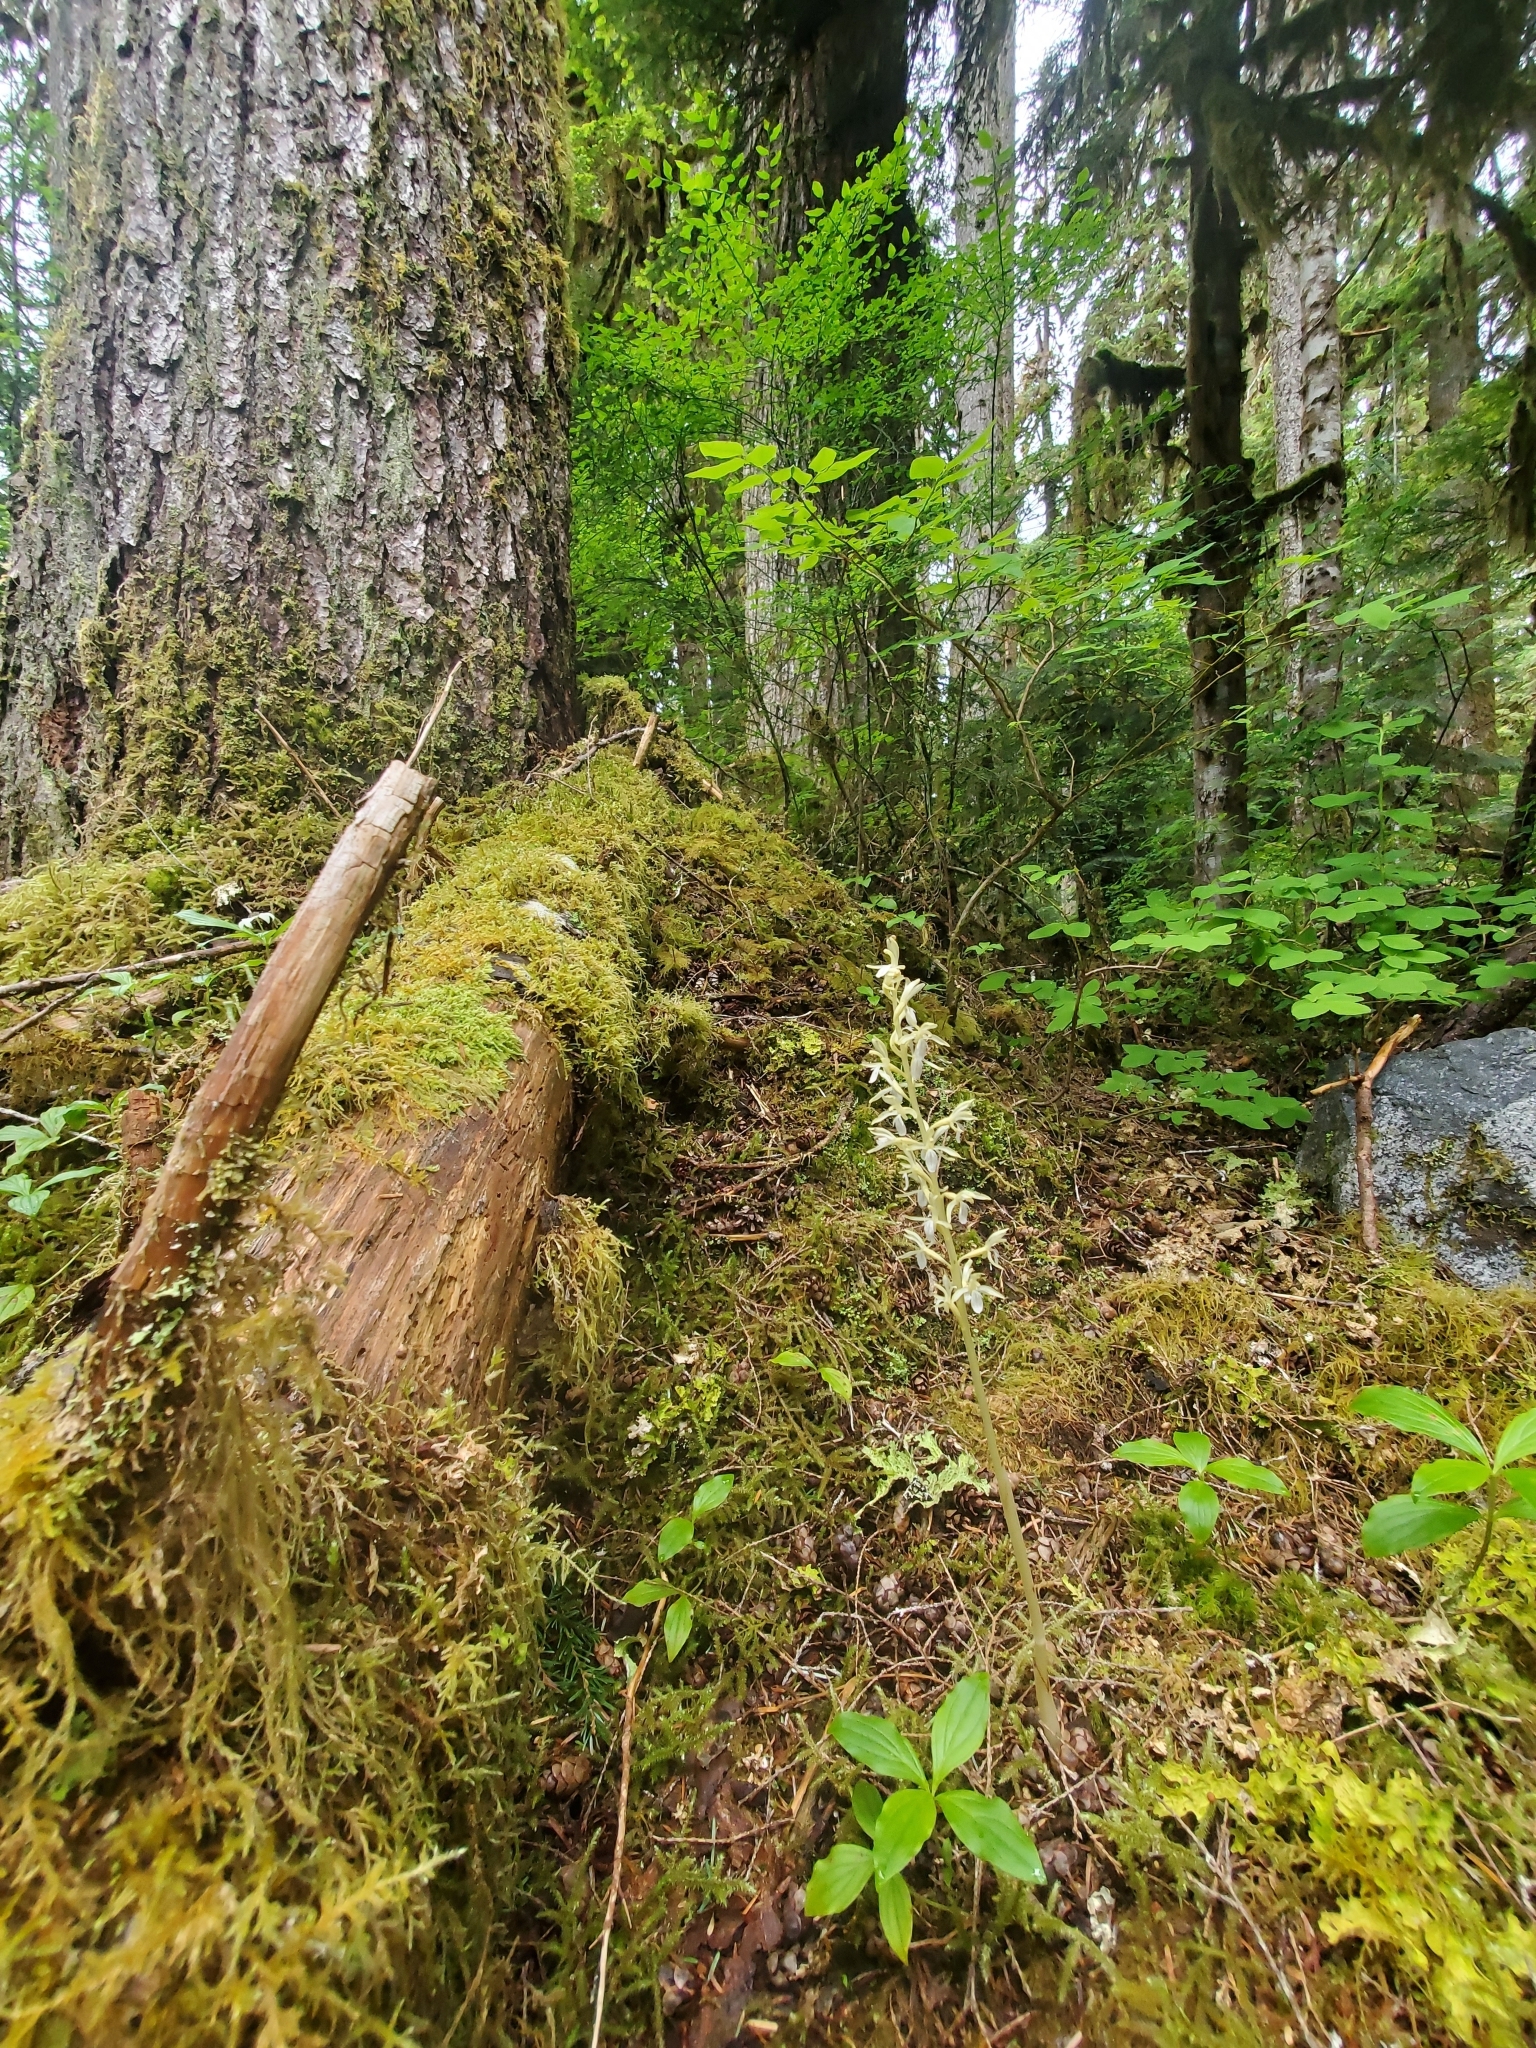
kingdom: Plantae
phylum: Tracheophyta
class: Liliopsida
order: Asparagales
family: Orchidaceae
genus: Corallorhiza
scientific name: Corallorhiza mertensiana
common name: Pacific coralroot
